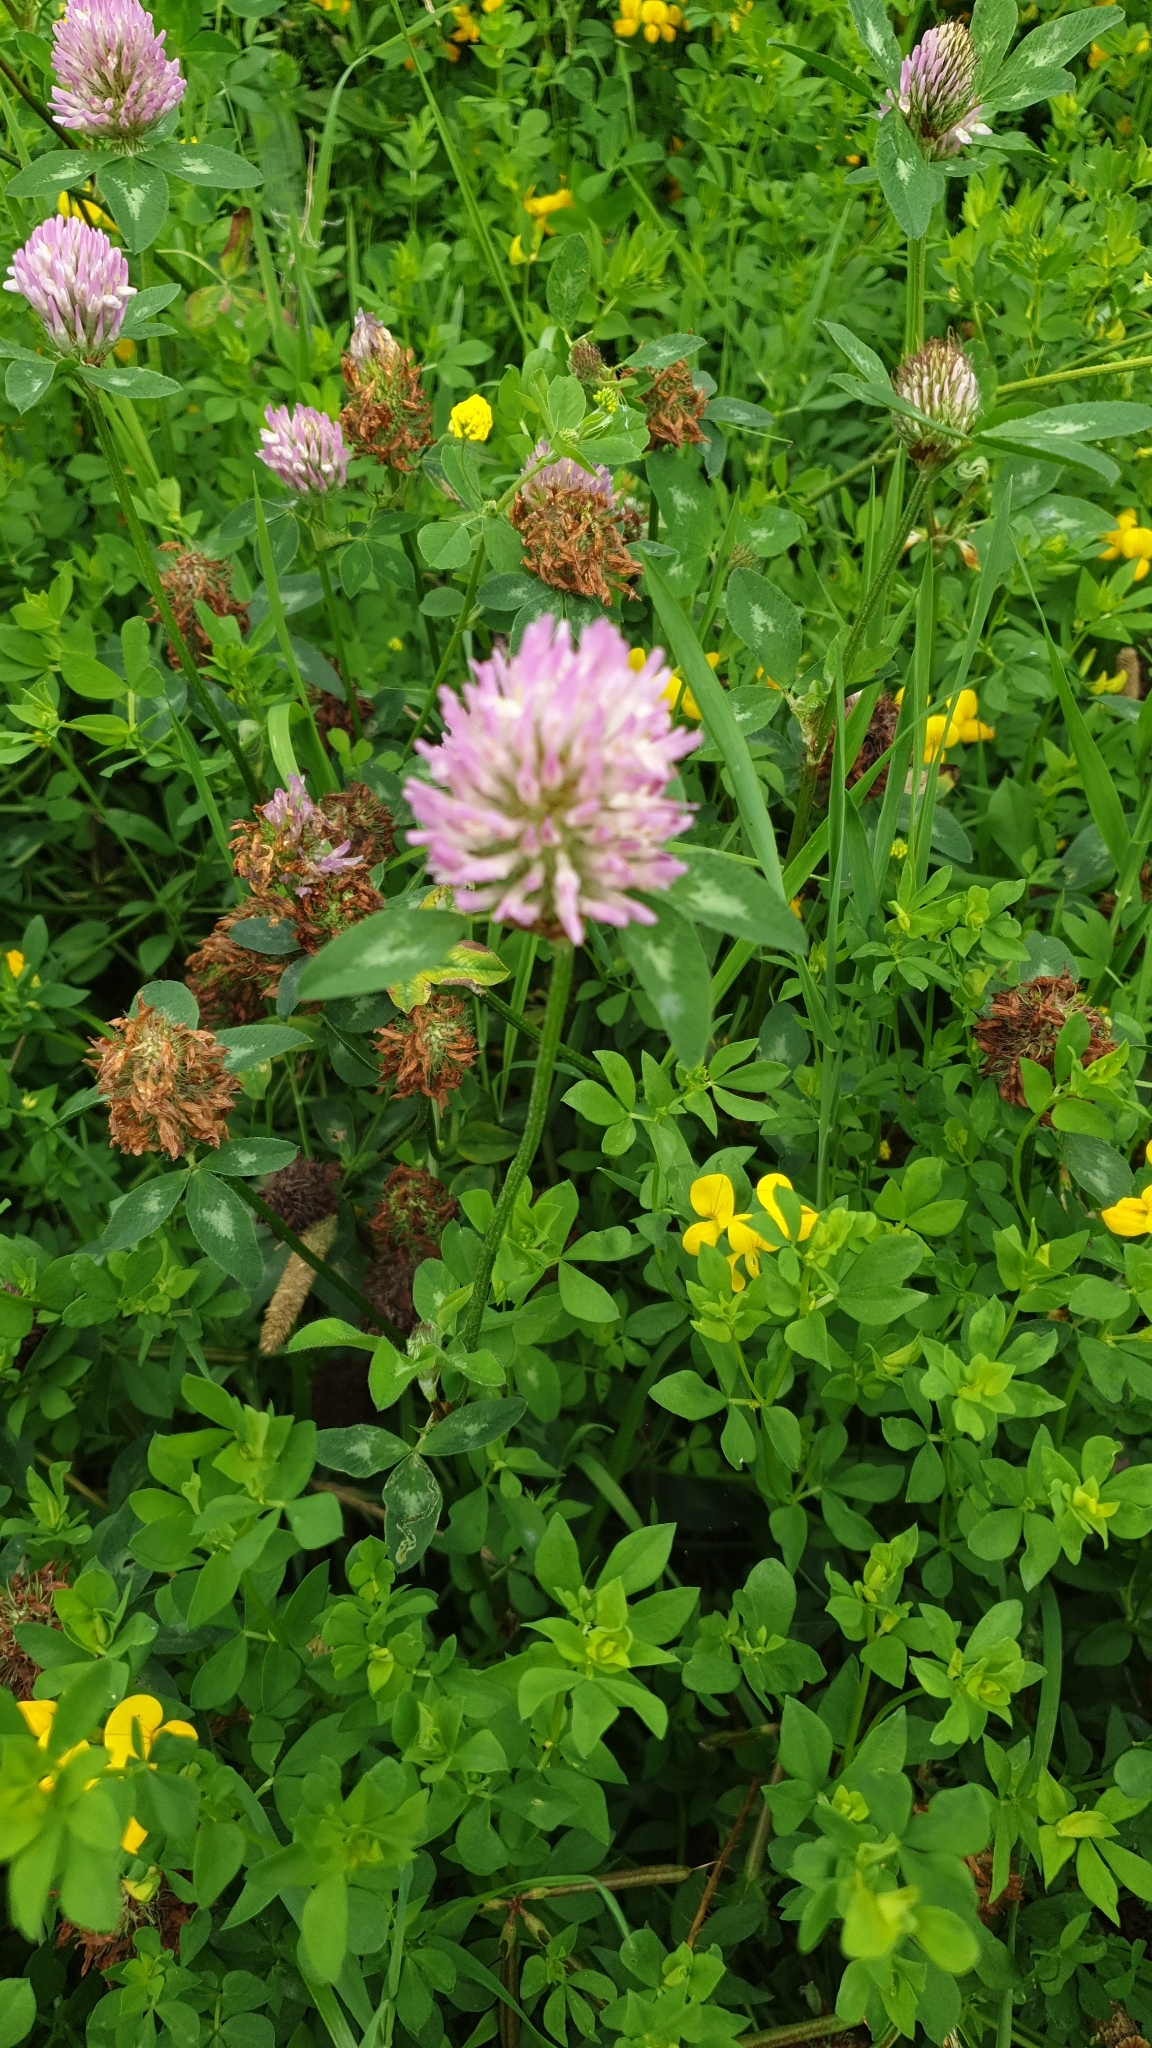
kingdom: Plantae
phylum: Tracheophyta
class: Magnoliopsida
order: Fabales
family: Fabaceae
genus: Trifolium
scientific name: Trifolium pratense
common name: Red clover
